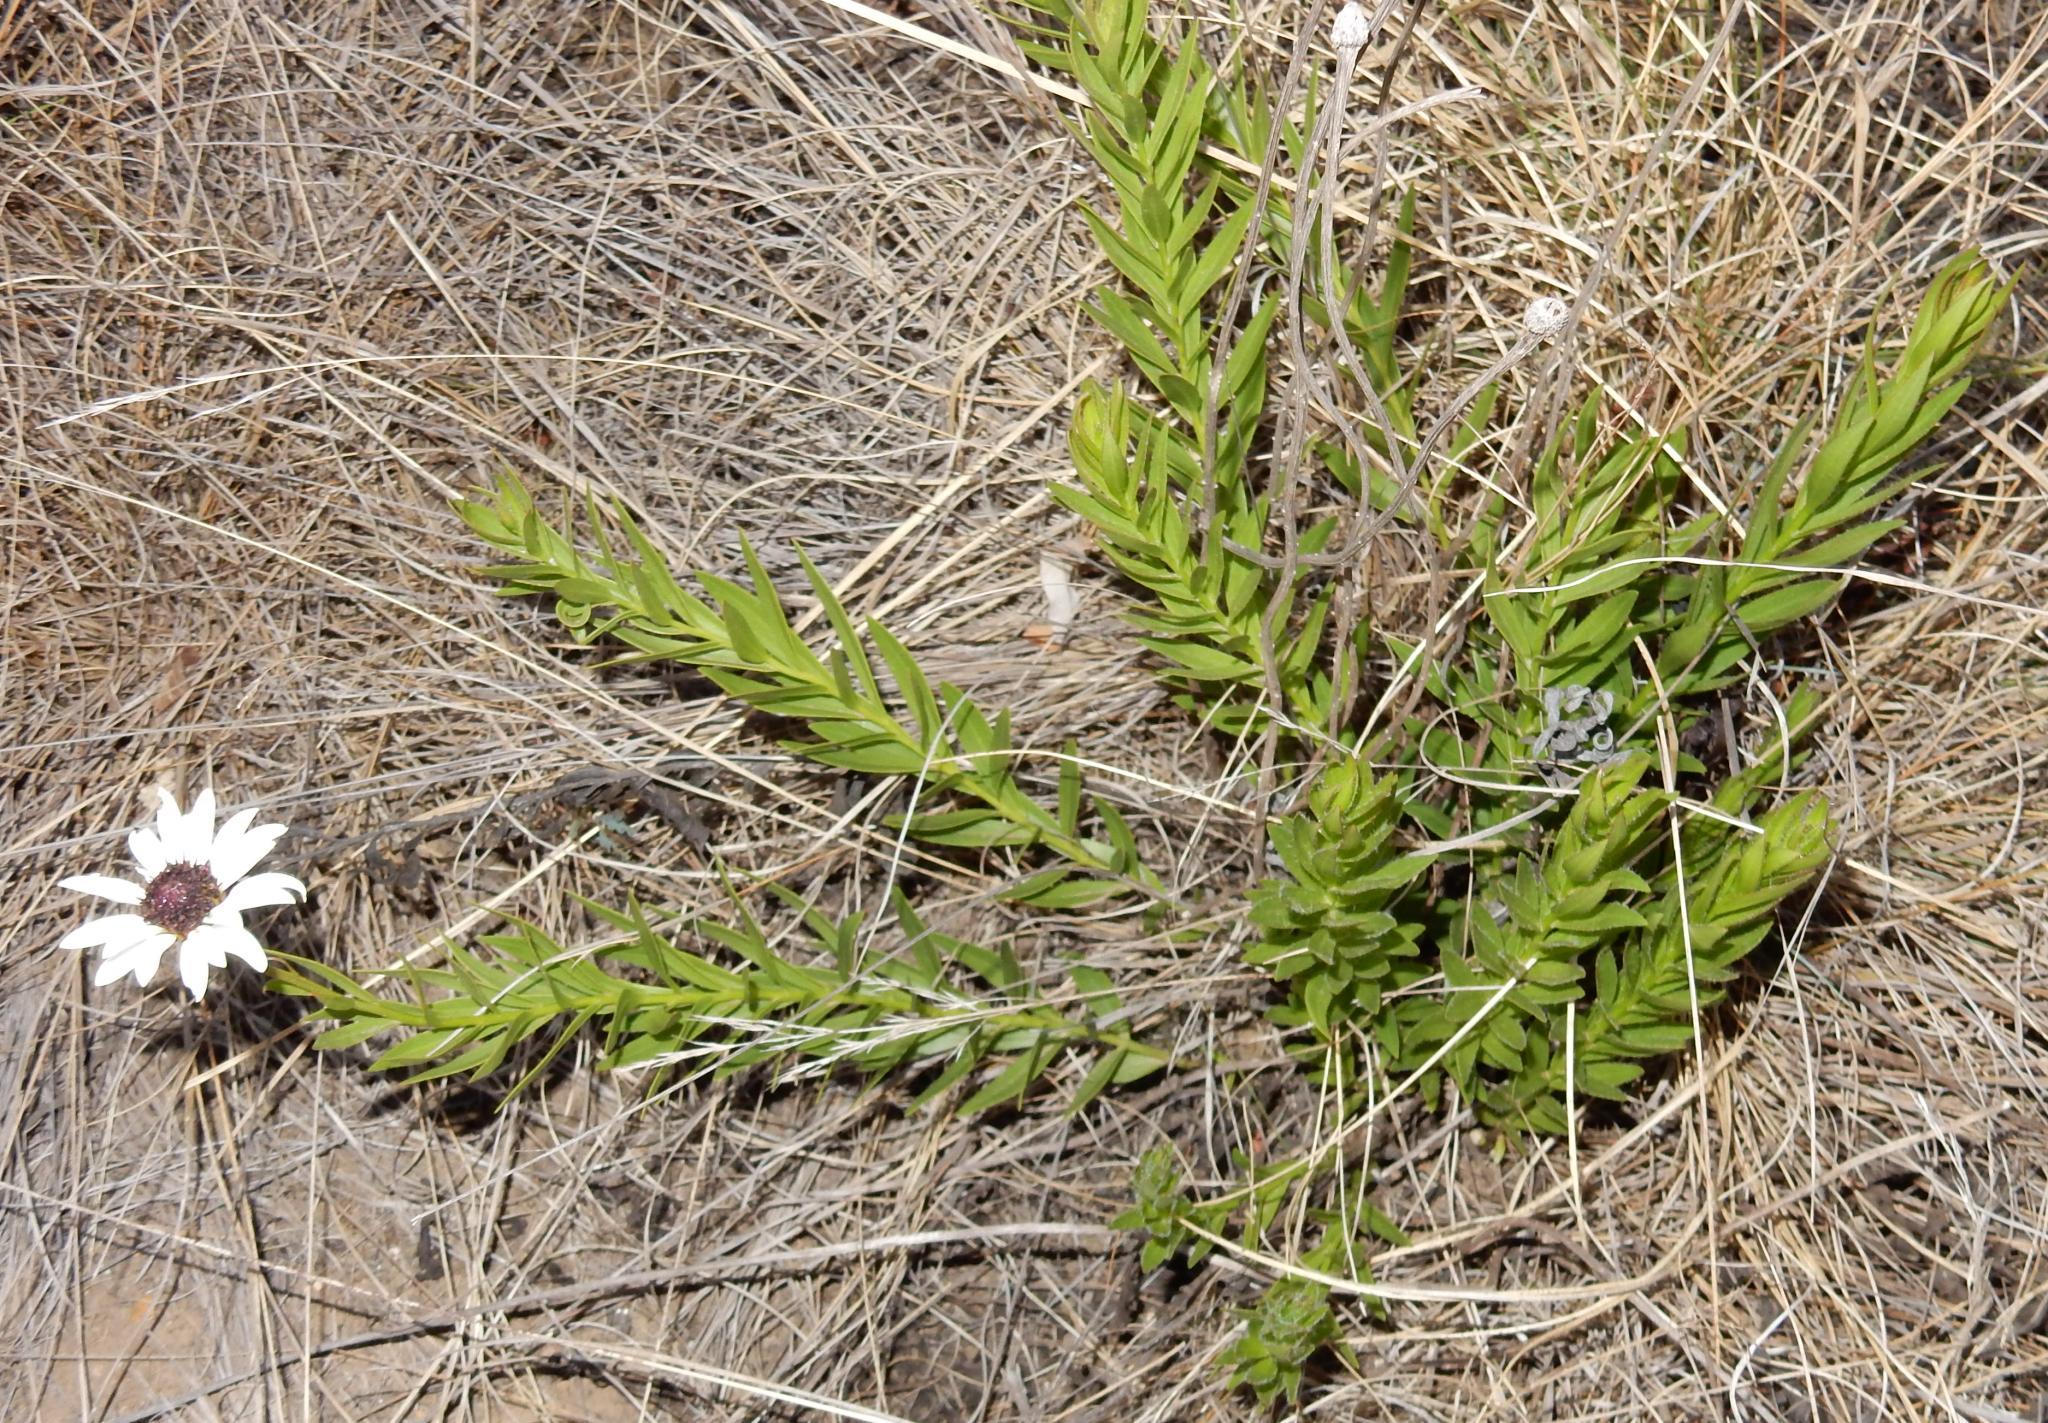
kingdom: Plantae
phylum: Tracheophyta
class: Magnoliopsida
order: Asterales
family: Asteraceae
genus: Callilepis
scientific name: Callilepis laureola
